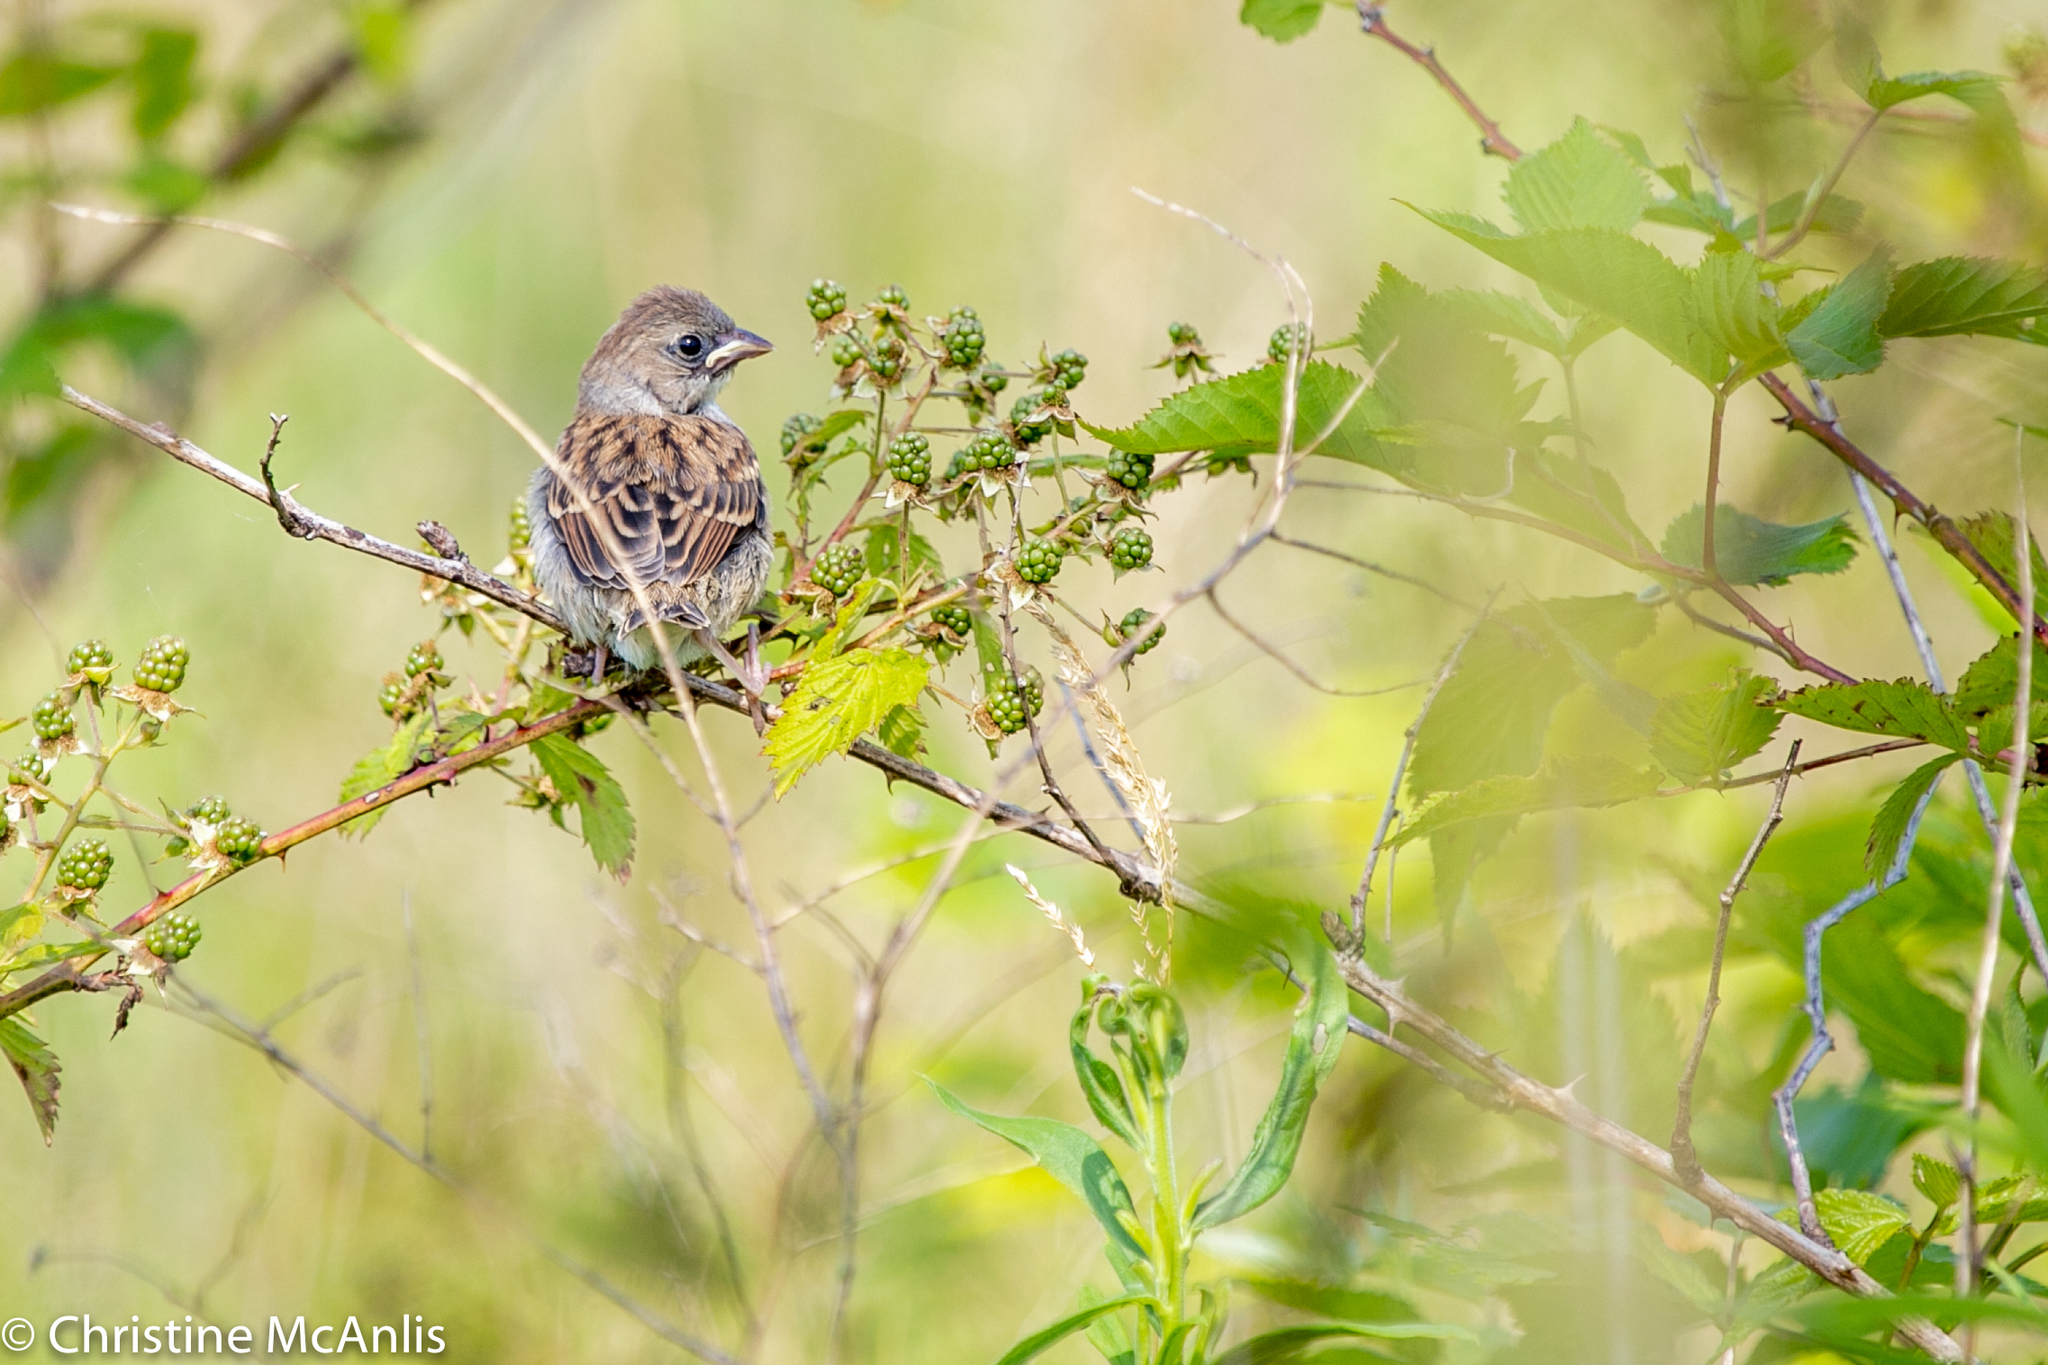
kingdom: Animalia
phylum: Chordata
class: Aves
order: Passeriformes
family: Passerellidae
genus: Spizella
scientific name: Spizella pusilla
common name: Field sparrow
